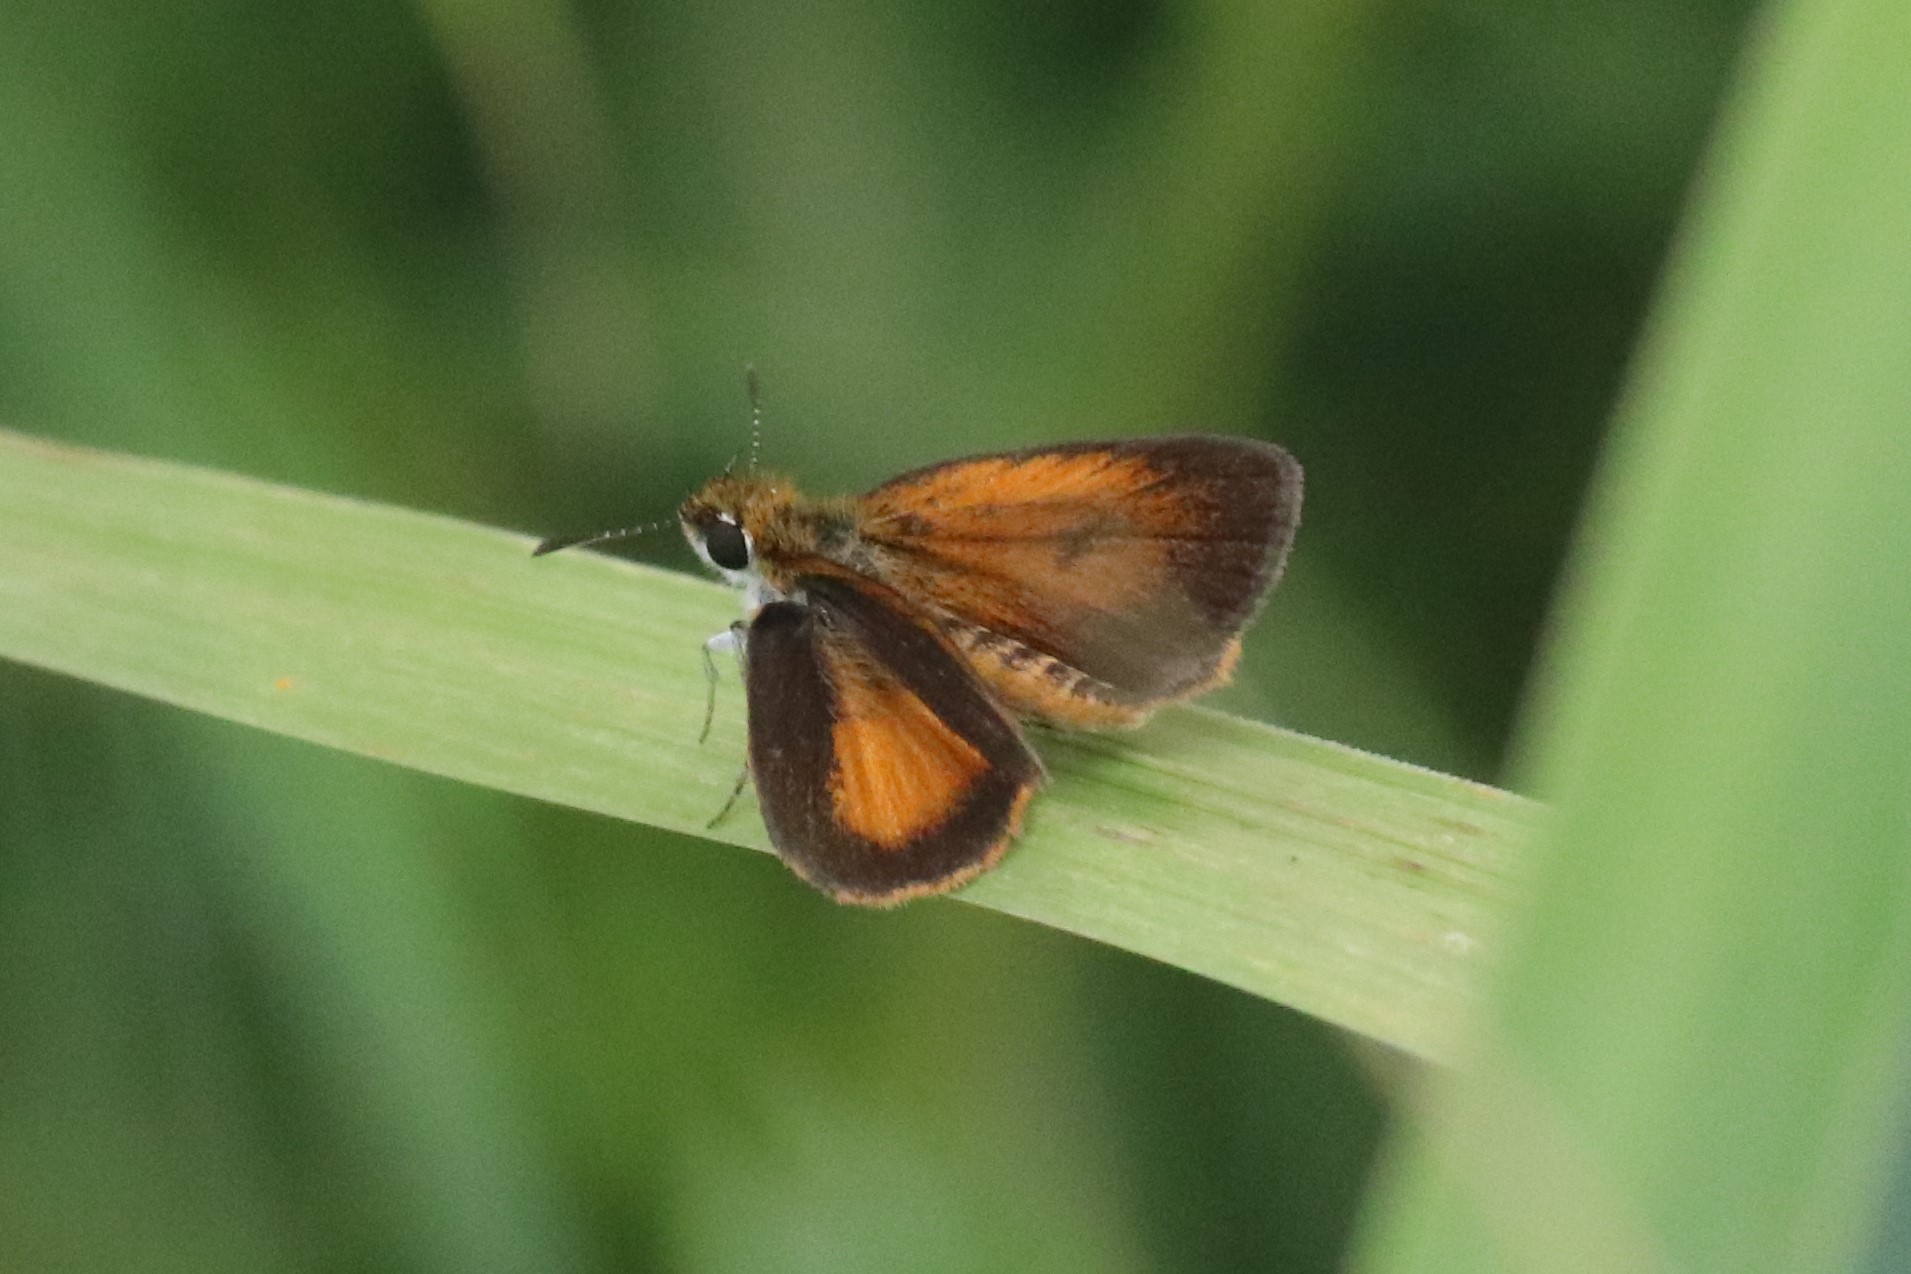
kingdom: Animalia
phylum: Arthropoda
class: Insecta
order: Lepidoptera
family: Hesperiidae
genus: Ancyloxypha
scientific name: Ancyloxypha numitor
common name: Least skipper
